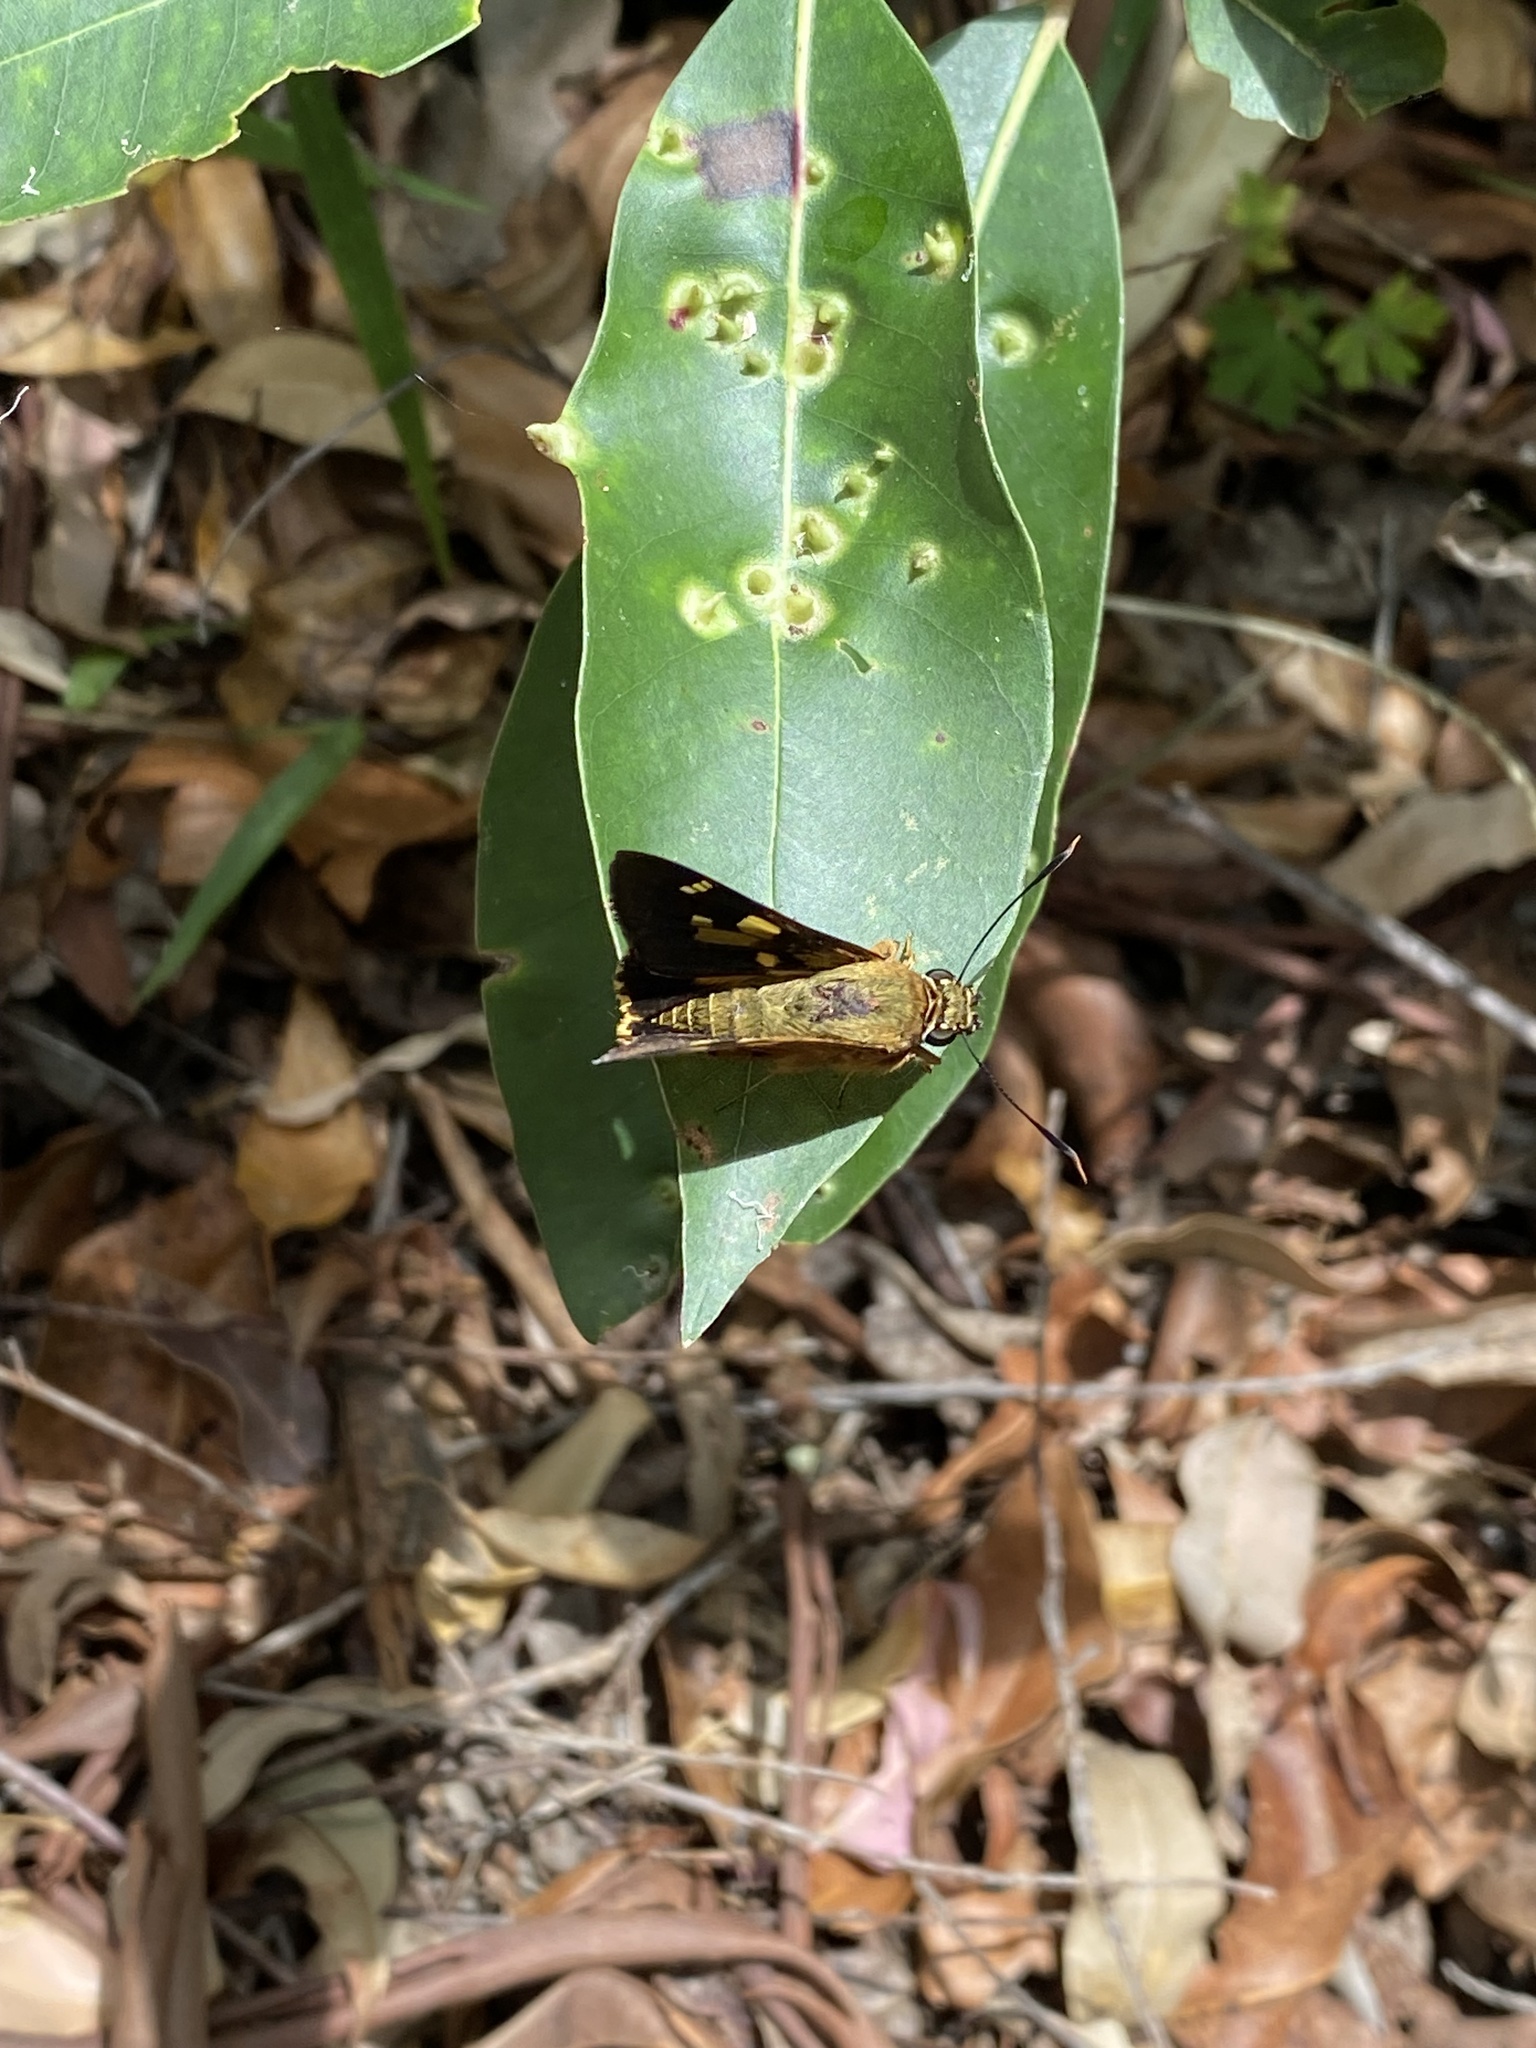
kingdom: Animalia
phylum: Arthropoda
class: Insecta
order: Lepidoptera
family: Hesperiidae
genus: Trapezites
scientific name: Trapezites symmomus
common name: Splendid ochre
